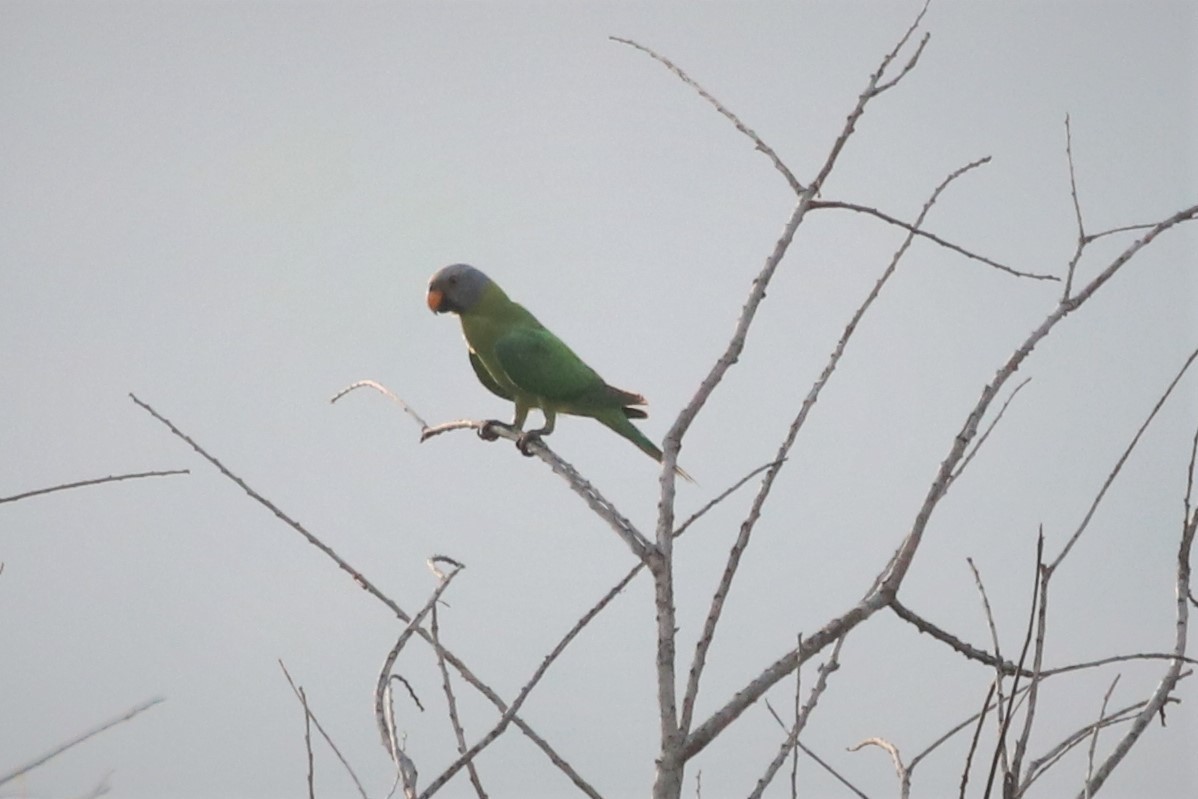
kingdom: Animalia
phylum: Chordata
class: Aves
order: Psittaciformes
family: Psittacidae
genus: Psittacula
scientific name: Psittacula roseata
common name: Blossom-headed parakeet
